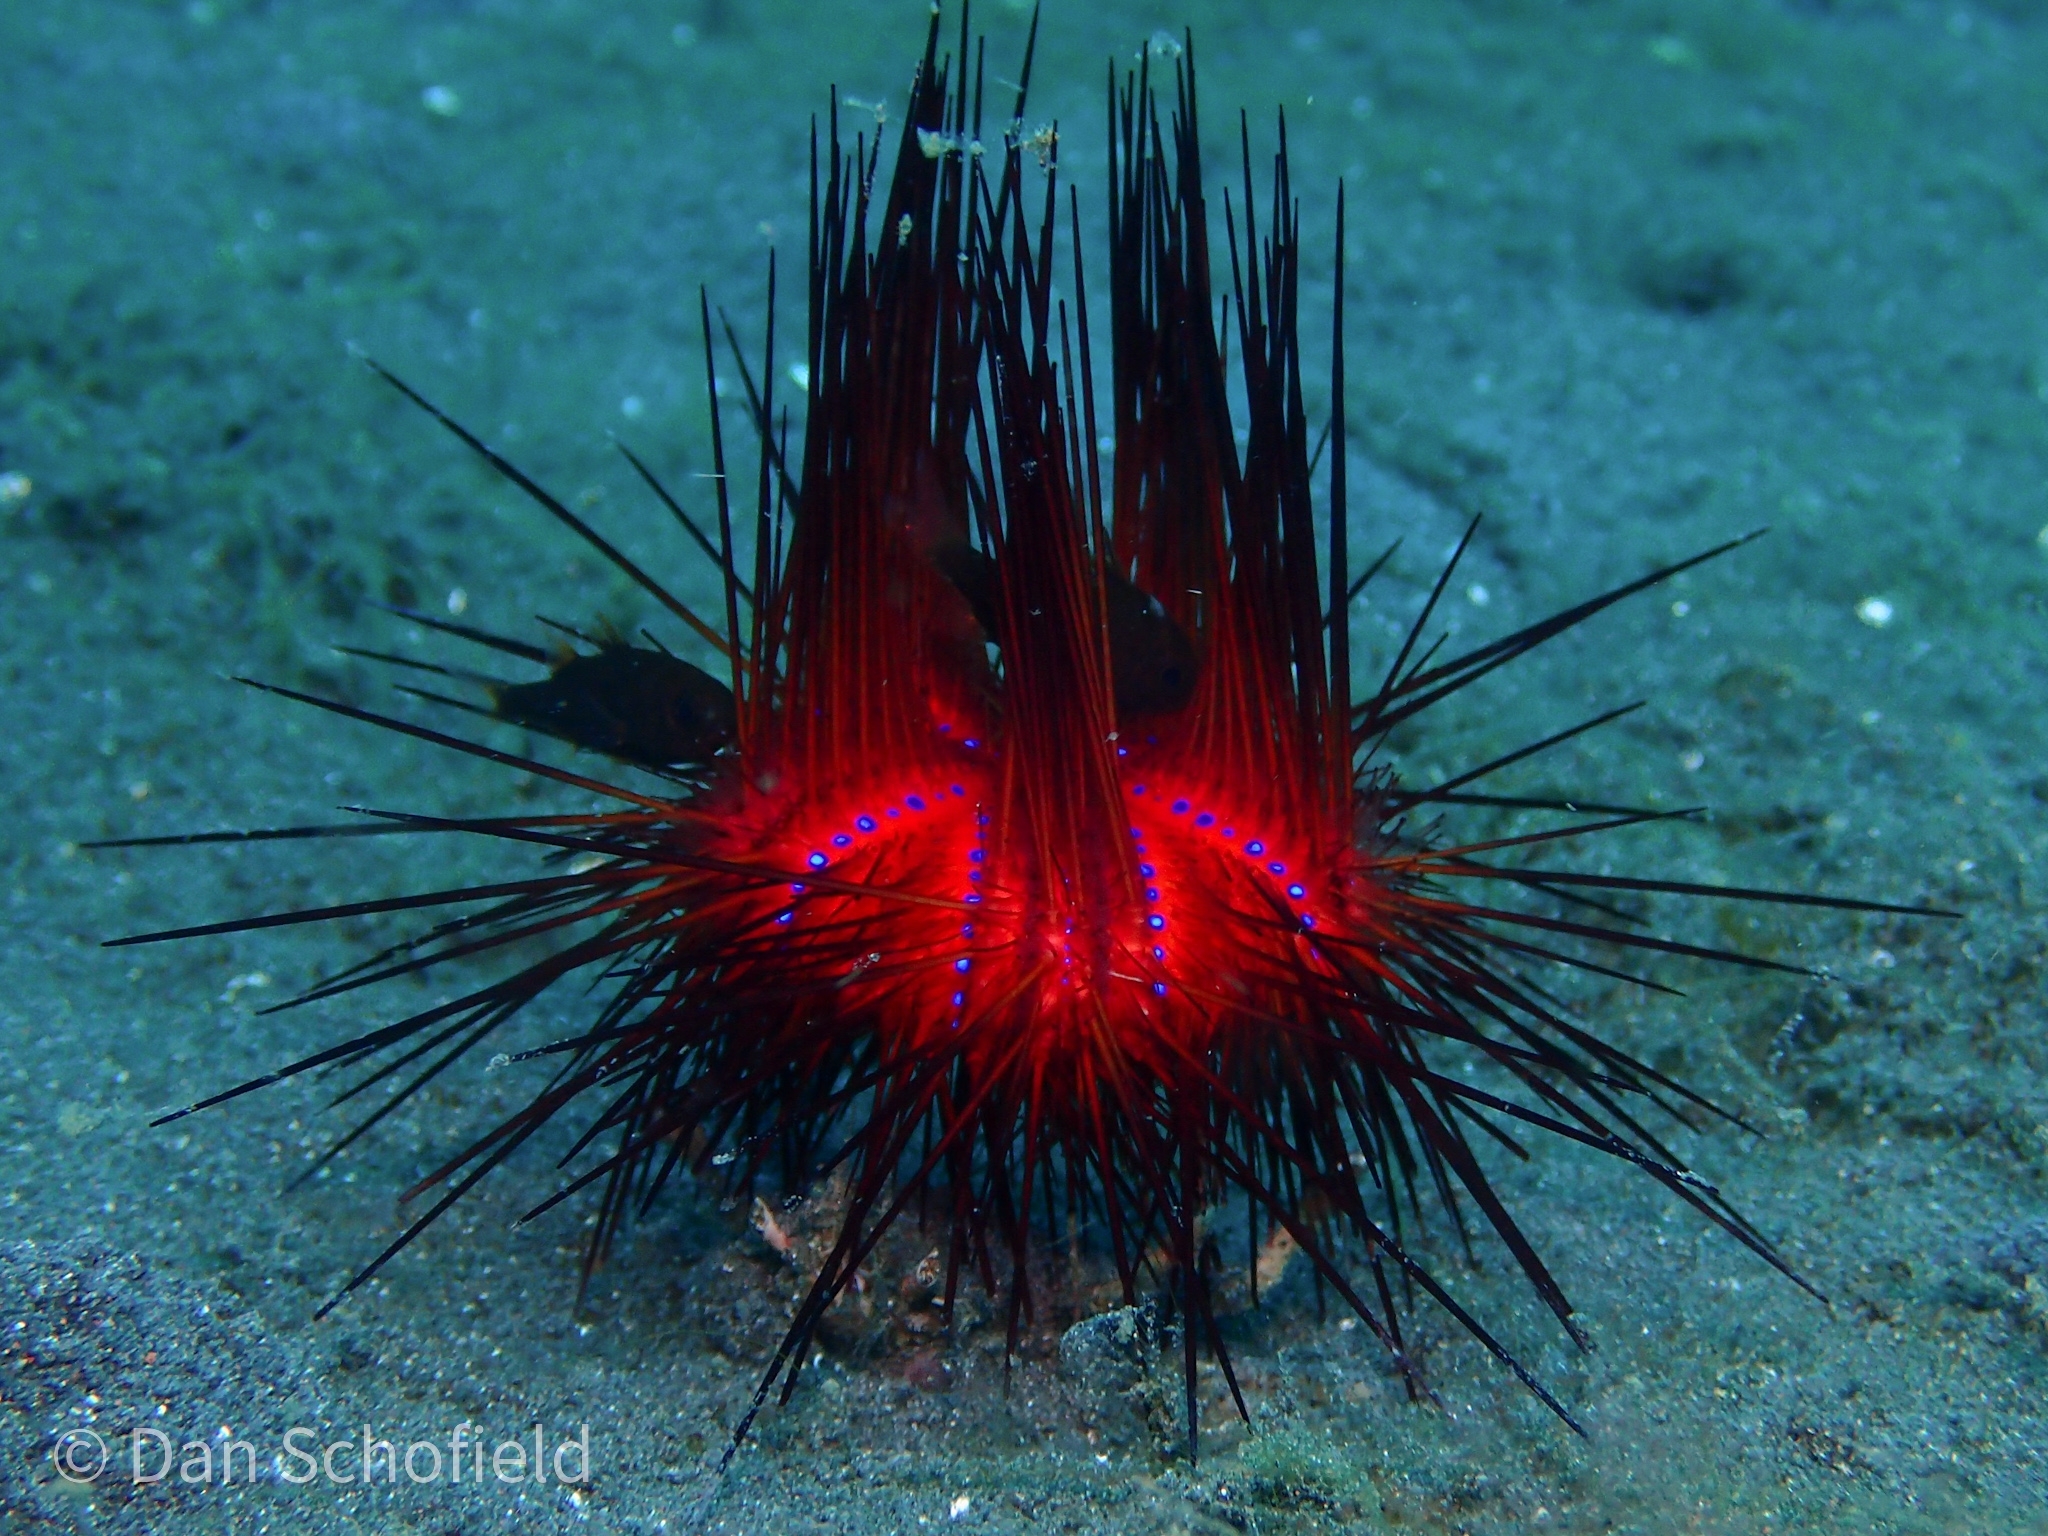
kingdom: Animalia
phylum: Echinodermata
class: Echinoidea
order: Diadematoida
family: Diadematidae
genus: Astropyga
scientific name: Astropyga radiata
